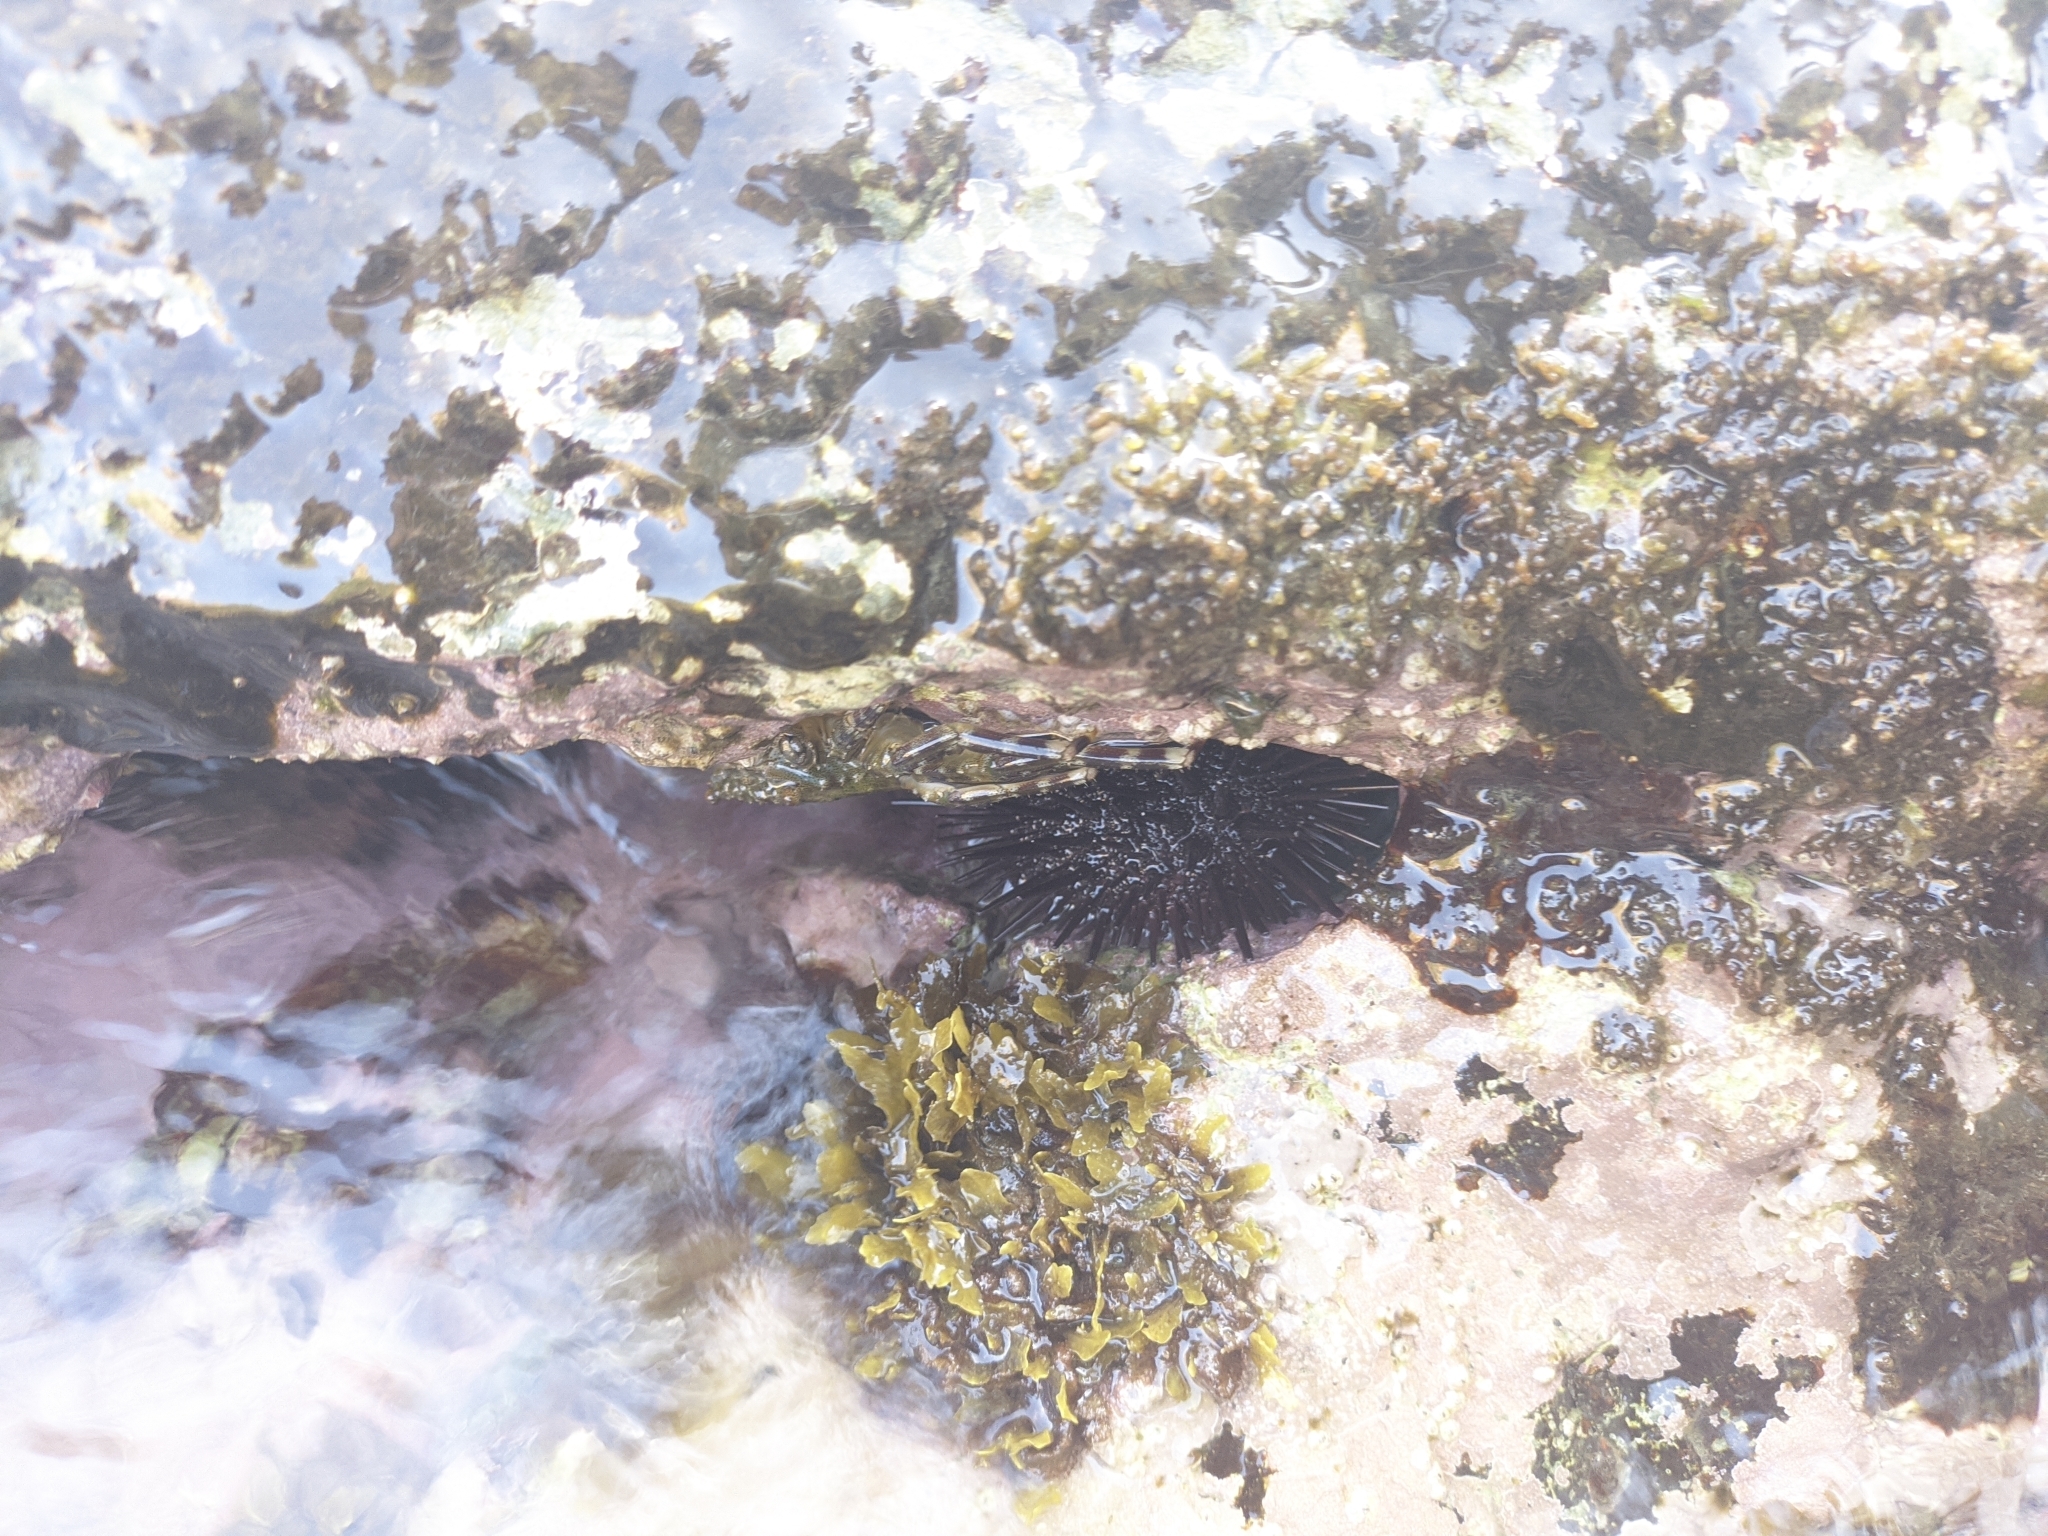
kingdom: Animalia
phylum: Echinodermata
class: Echinoidea
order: Camarodonta
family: Echinometridae
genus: Echinometra
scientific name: Echinometra lucunter
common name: Rock urchin
